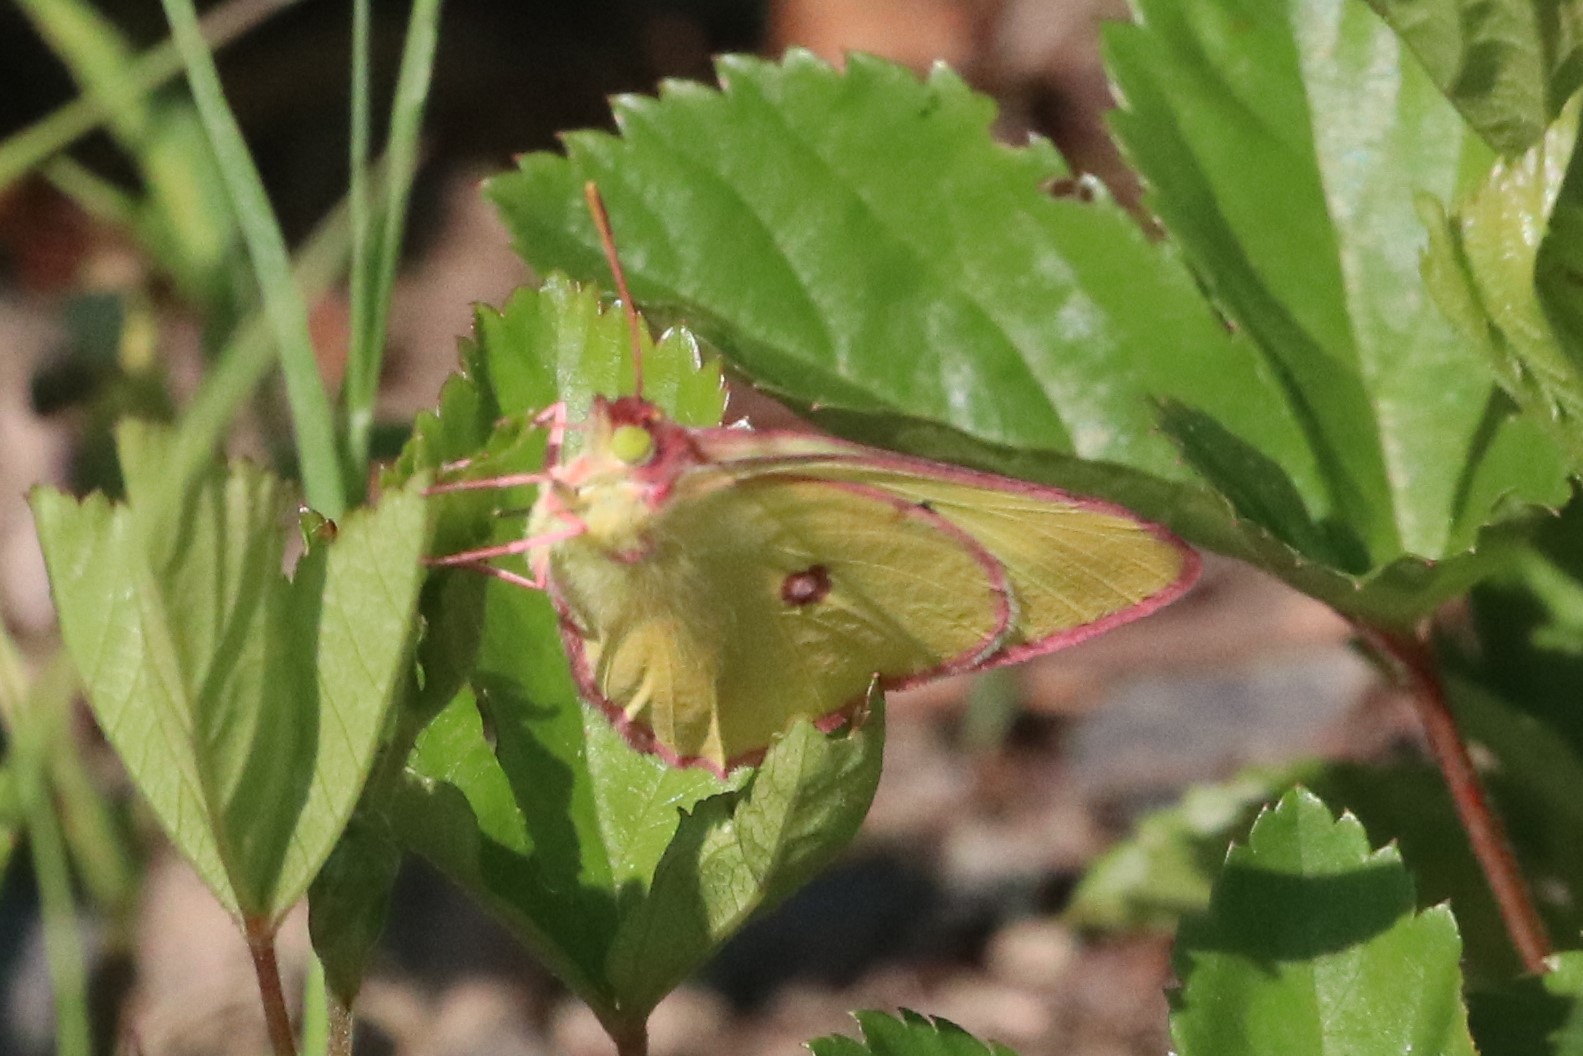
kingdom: Animalia
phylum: Arthropoda
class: Insecta
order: Lepidoptera
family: Pieridae
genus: Colias
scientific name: Colias interior
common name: Pink-edged sulphur
